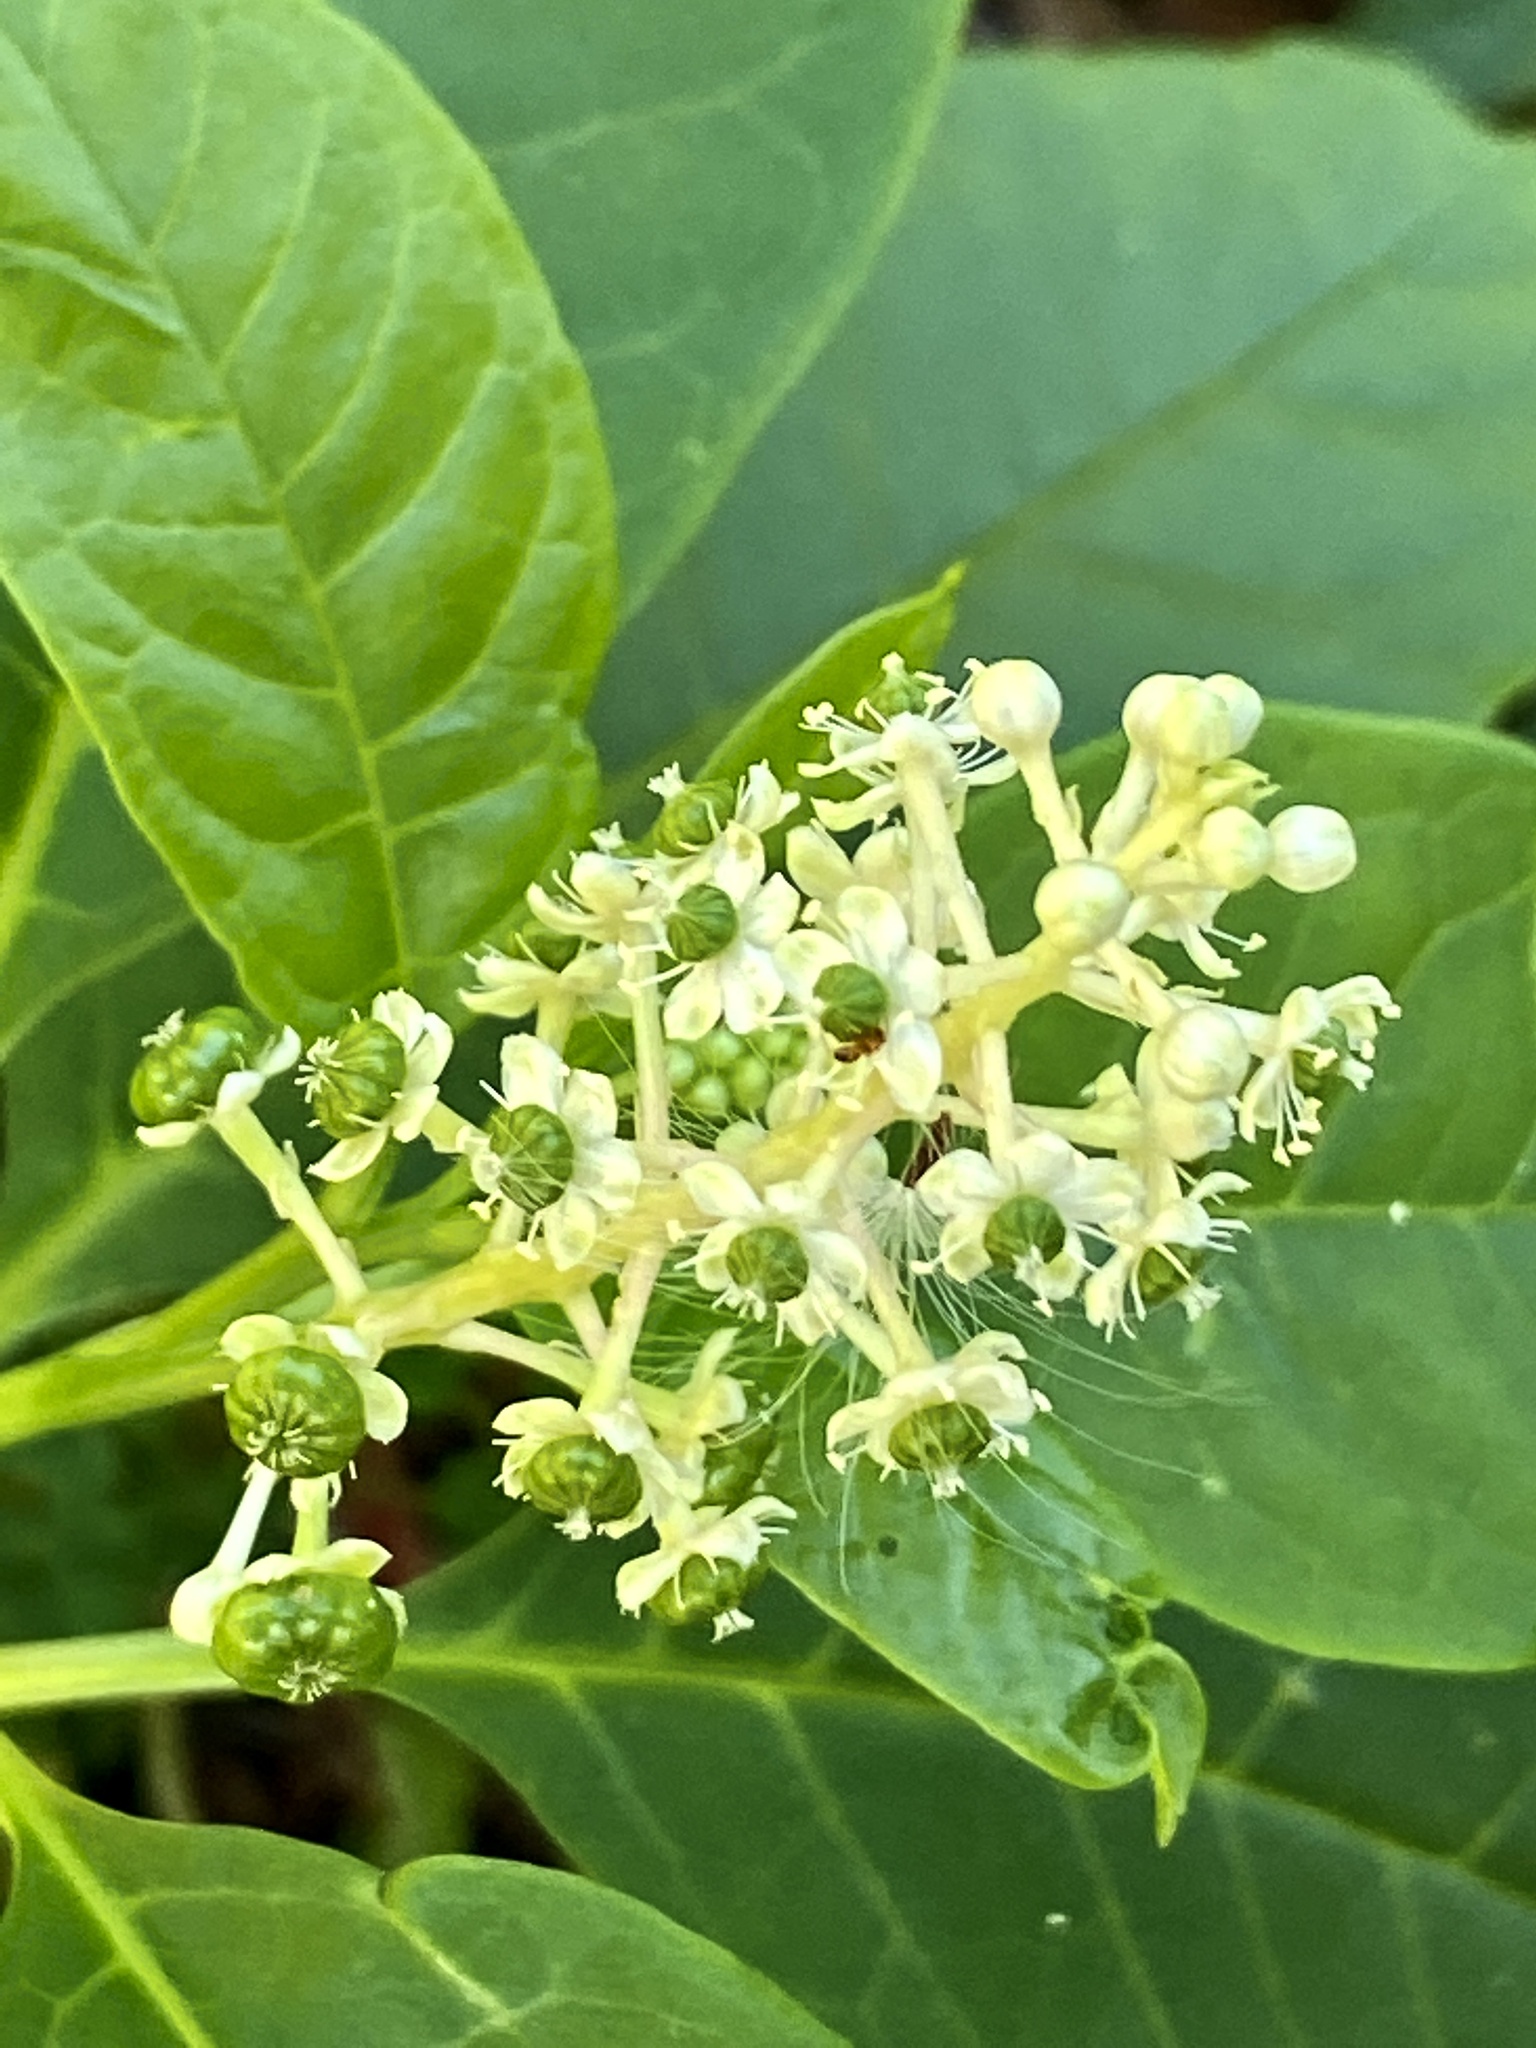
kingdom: Plantae
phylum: Tracheophyta
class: Magnoliopsida
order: Caryophyllales
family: Phytolaccaceae
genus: Phytolacca
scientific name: Phytolacca americana
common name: American pokeweed
